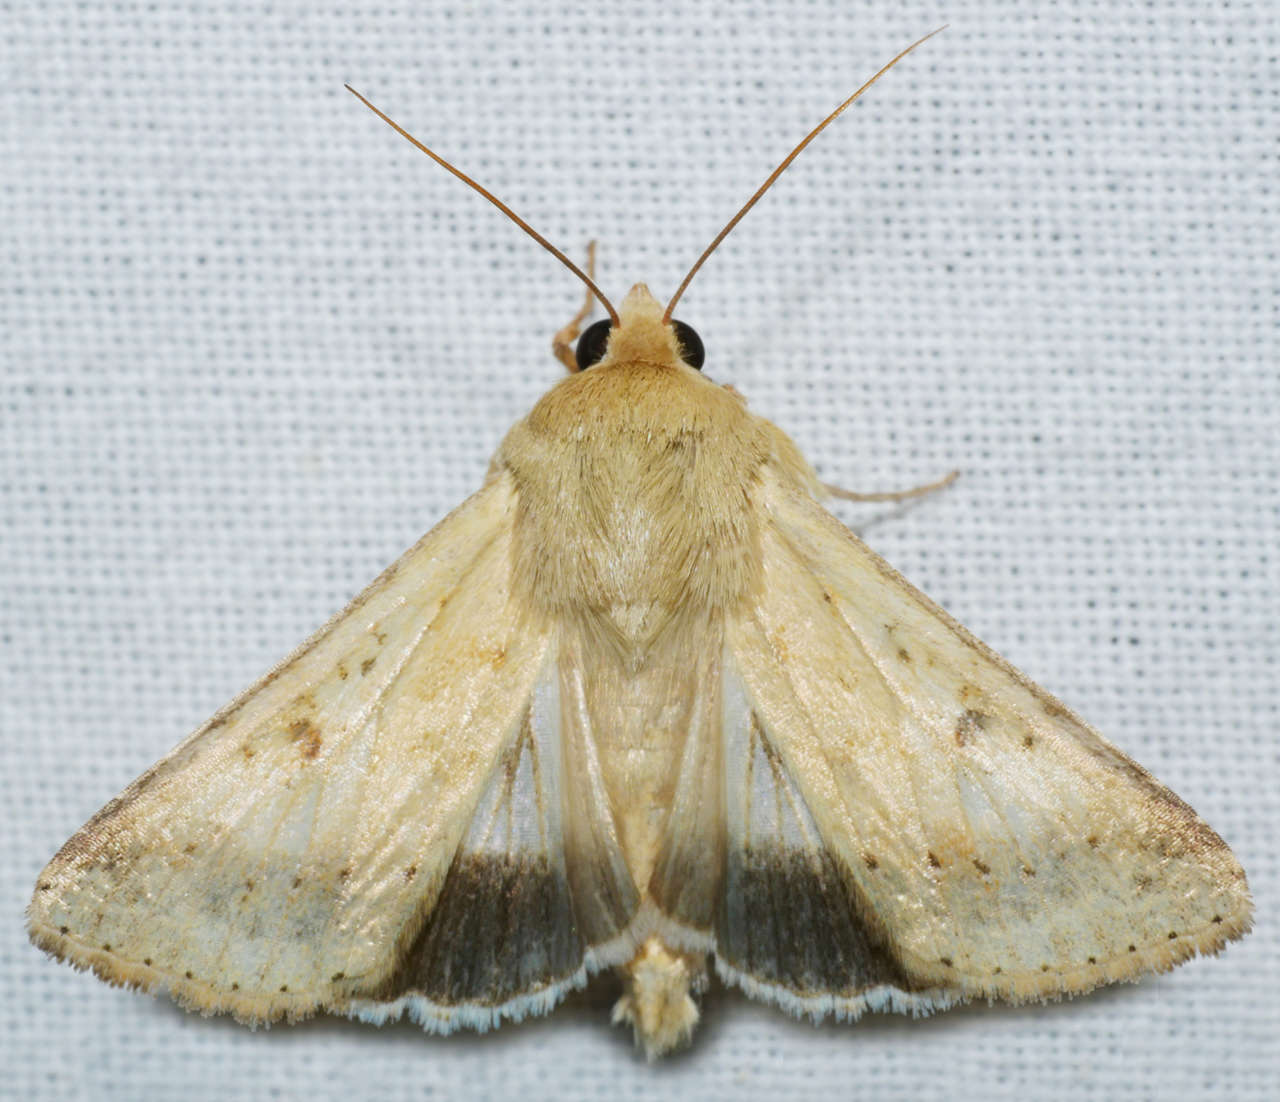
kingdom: Animalia
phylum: Arthropoda
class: Insecta
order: Lepidoptera
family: Noctuidae
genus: Helicoverpa
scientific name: Helicoverpa punctigera
